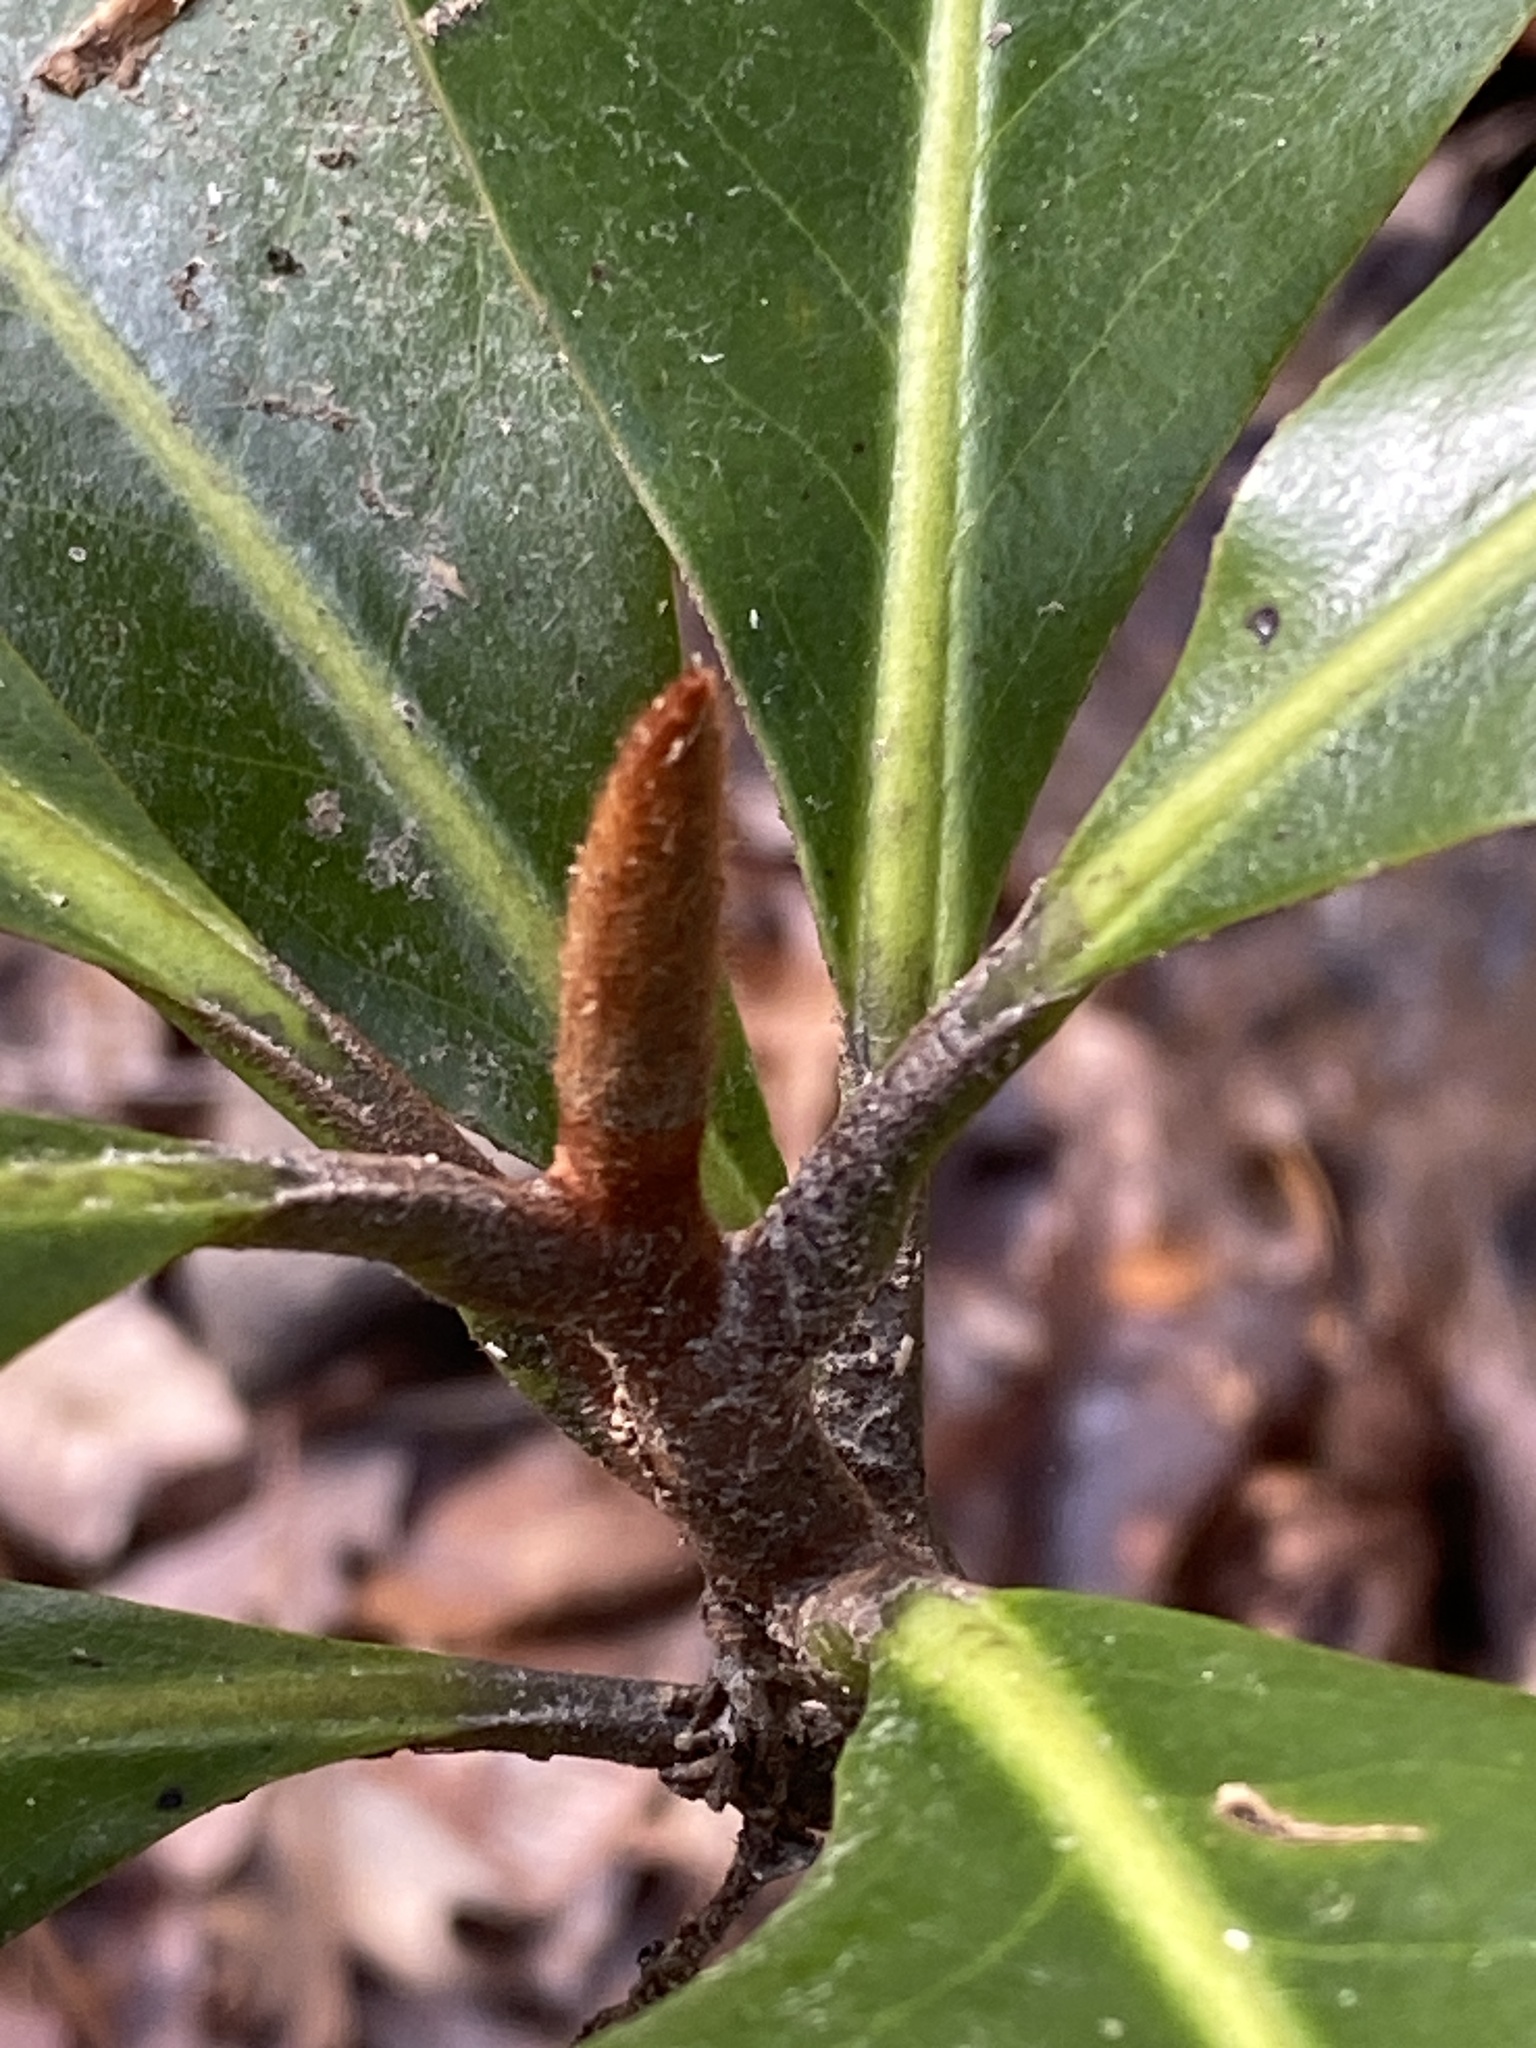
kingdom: Plantae
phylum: Tracheophyta
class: Magnoliopsida
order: Magnoliales
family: Magnoliaceae
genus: Magnolia
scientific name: Magnolia grandiflora
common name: Southern magnolia
